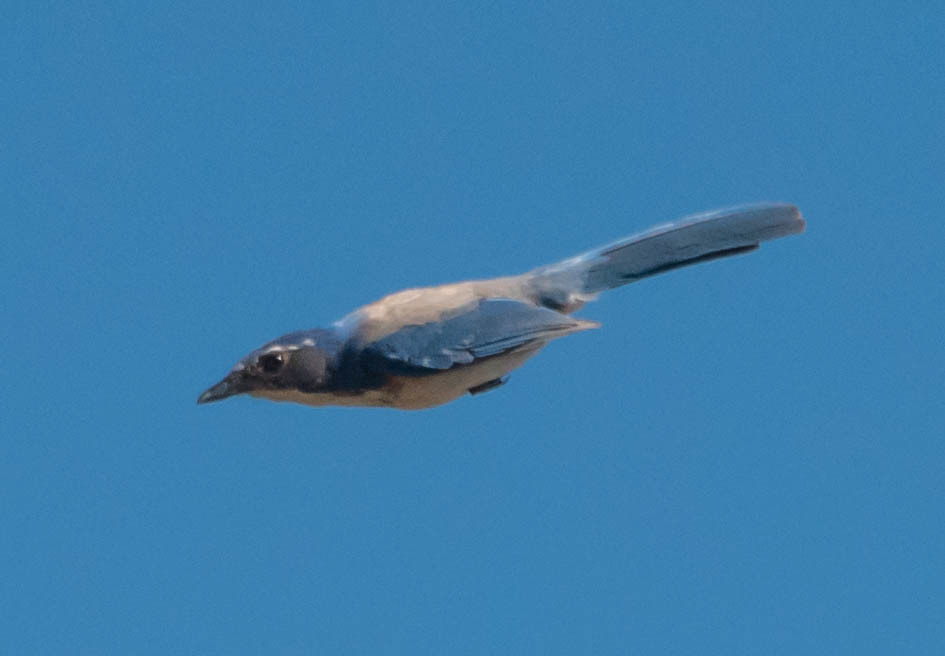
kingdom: Animalia
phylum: Chordata
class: Aves
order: Passeriformes
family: Corvidae
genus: Aphelocoma
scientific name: Aphelocoma californica
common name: California scrub-jay
